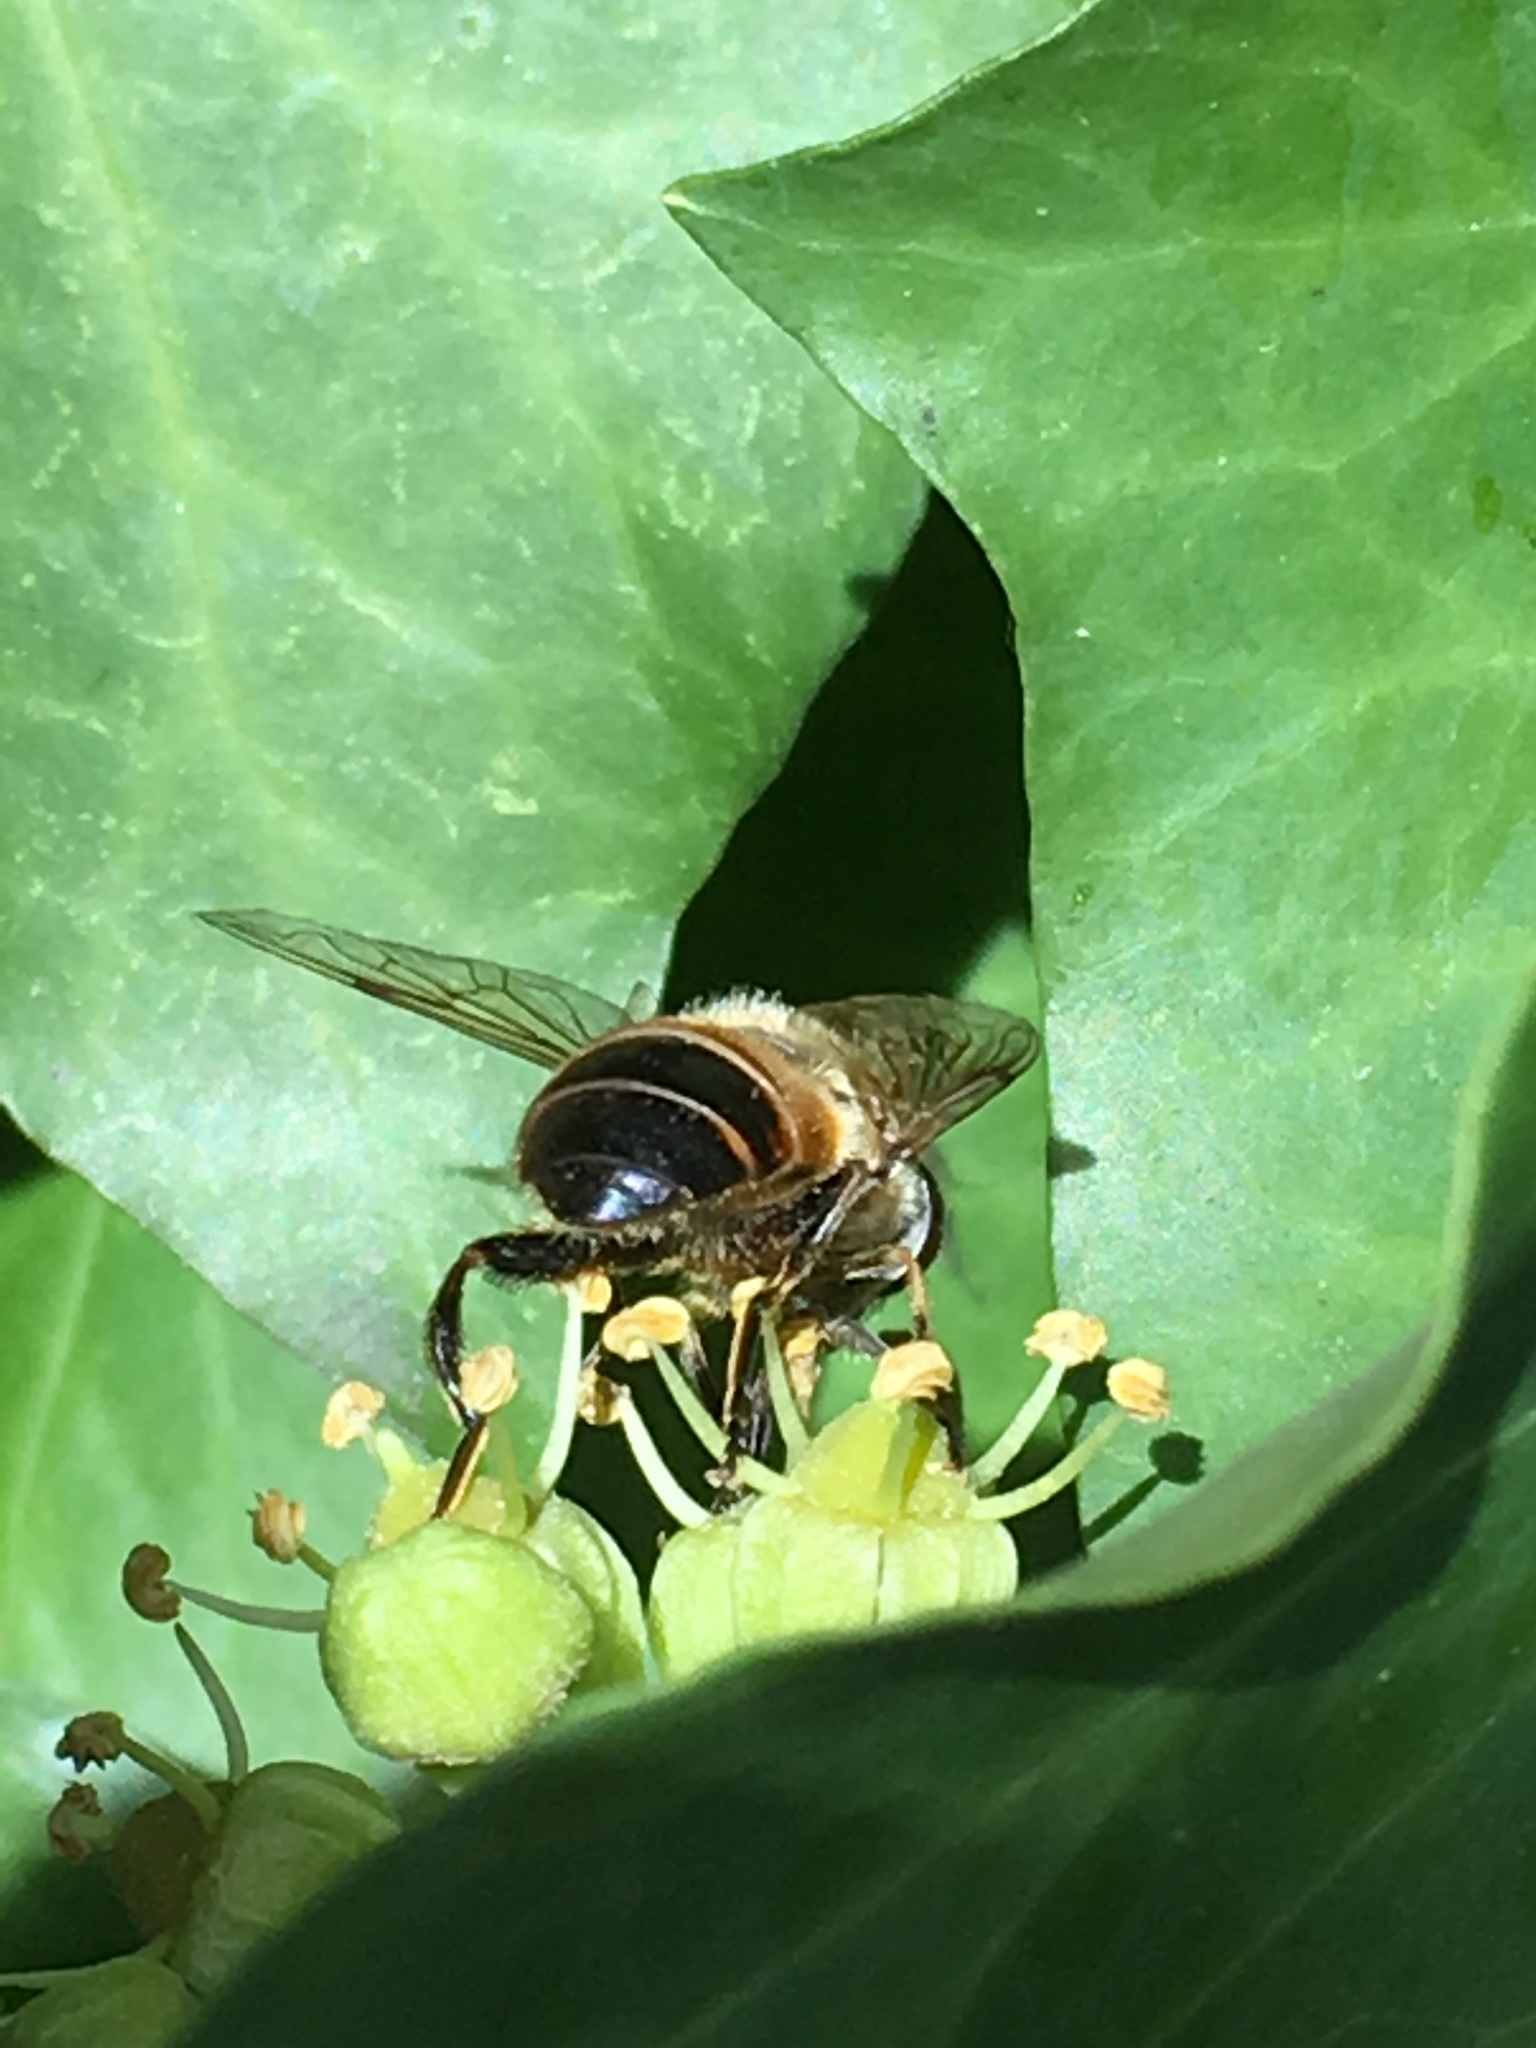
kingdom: Animalia
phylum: Arthropoda
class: Insecta
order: Diptera
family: Syrphidae
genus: Eristalis
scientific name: Eristalis tenax
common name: Drone fly
